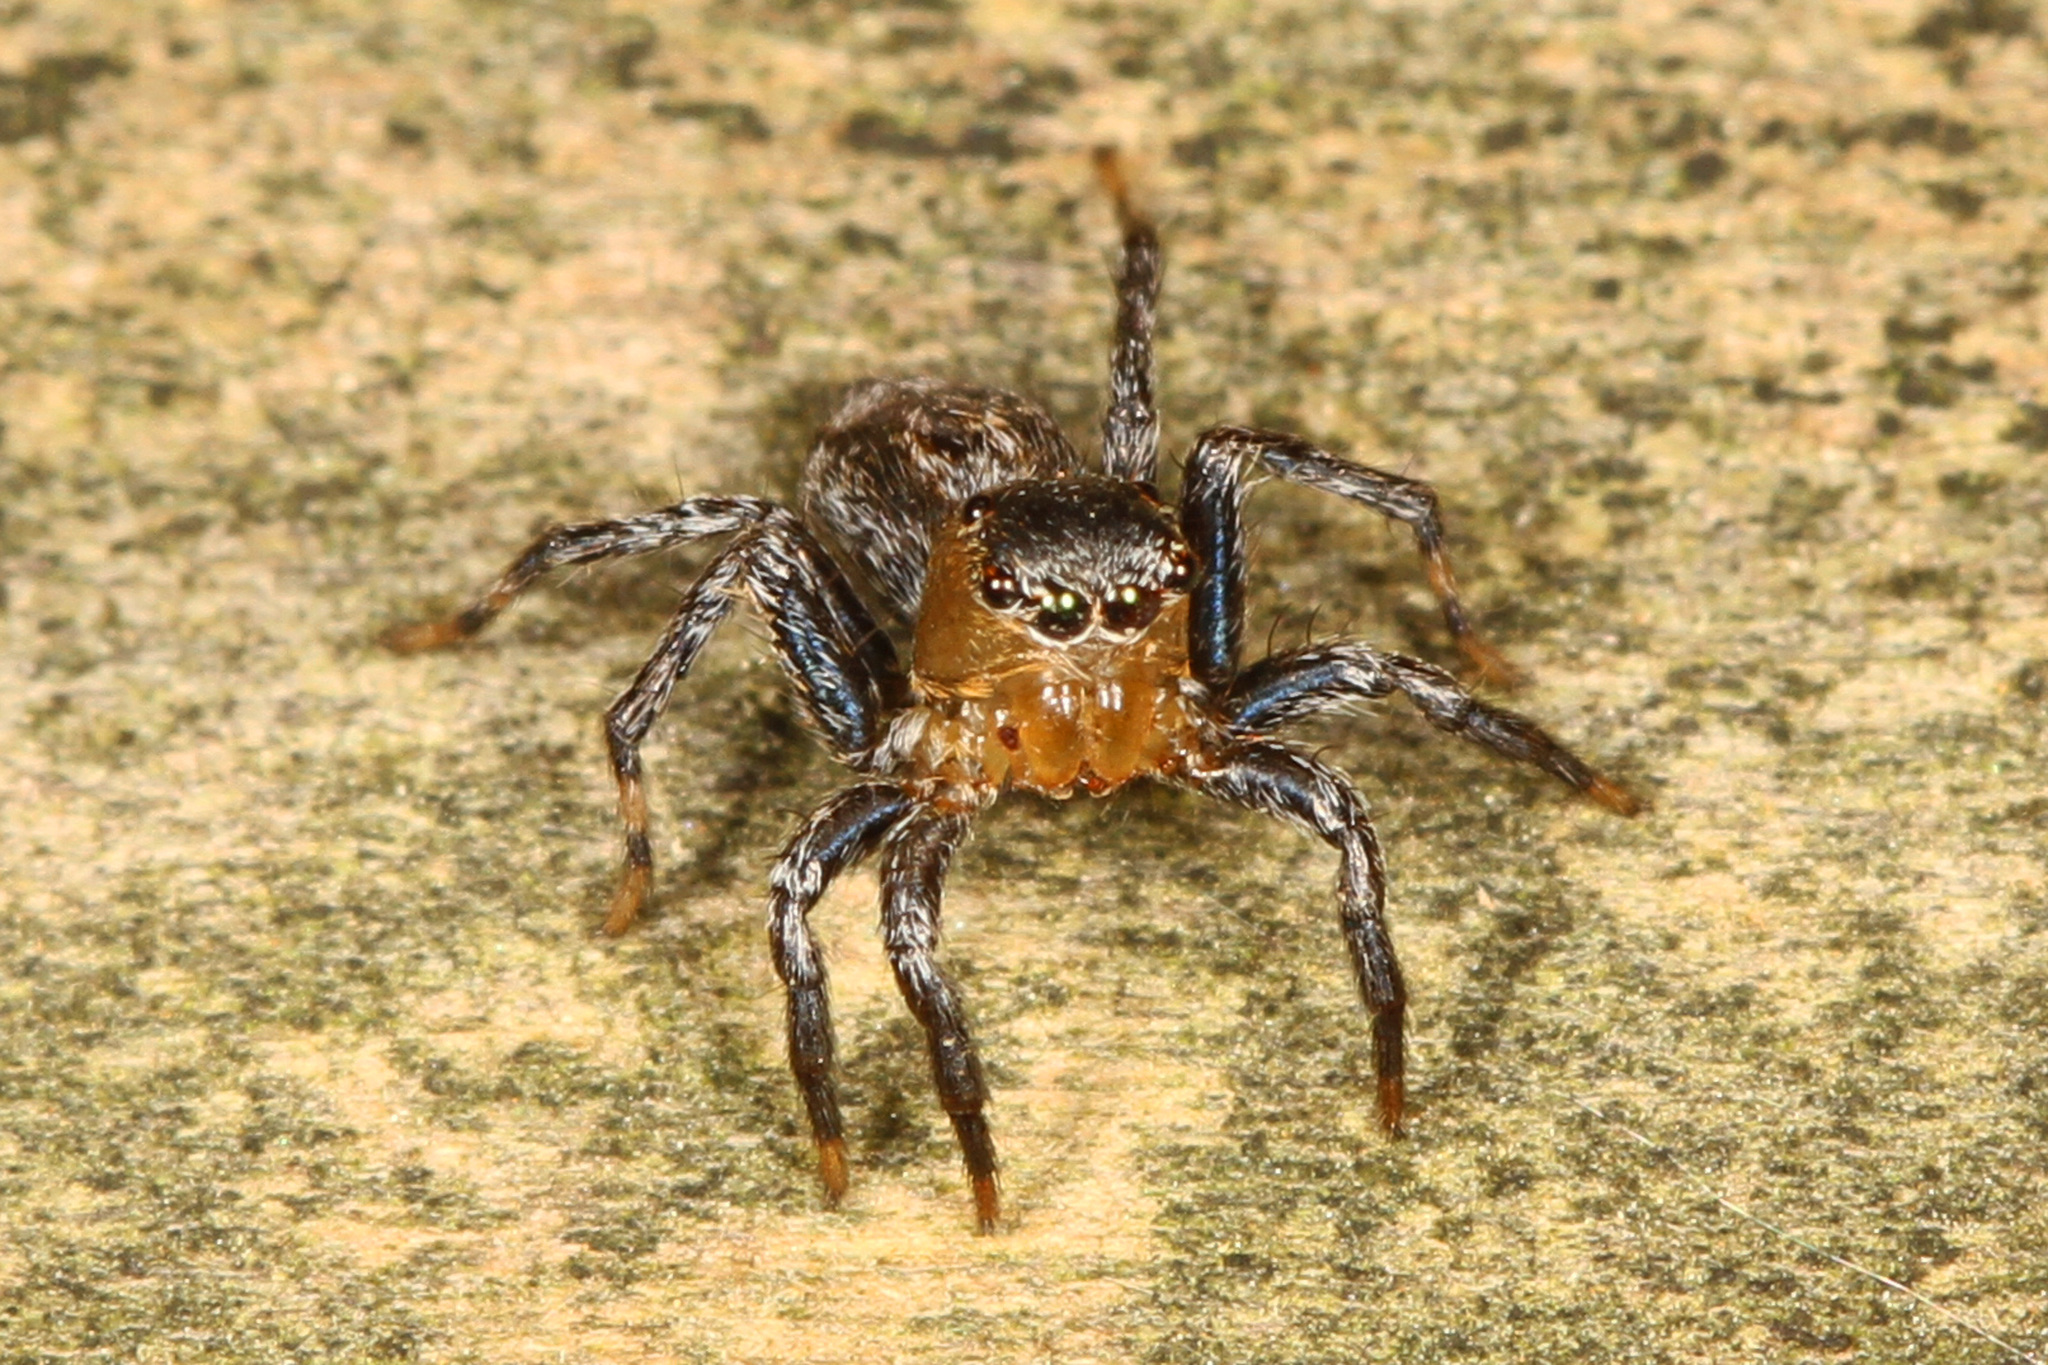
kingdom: Animalia
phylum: Arthropoda
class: Arachnida
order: Araneae
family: Salticidae
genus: Naphrys
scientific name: Naphrys pulex
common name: Flea jumping spider
